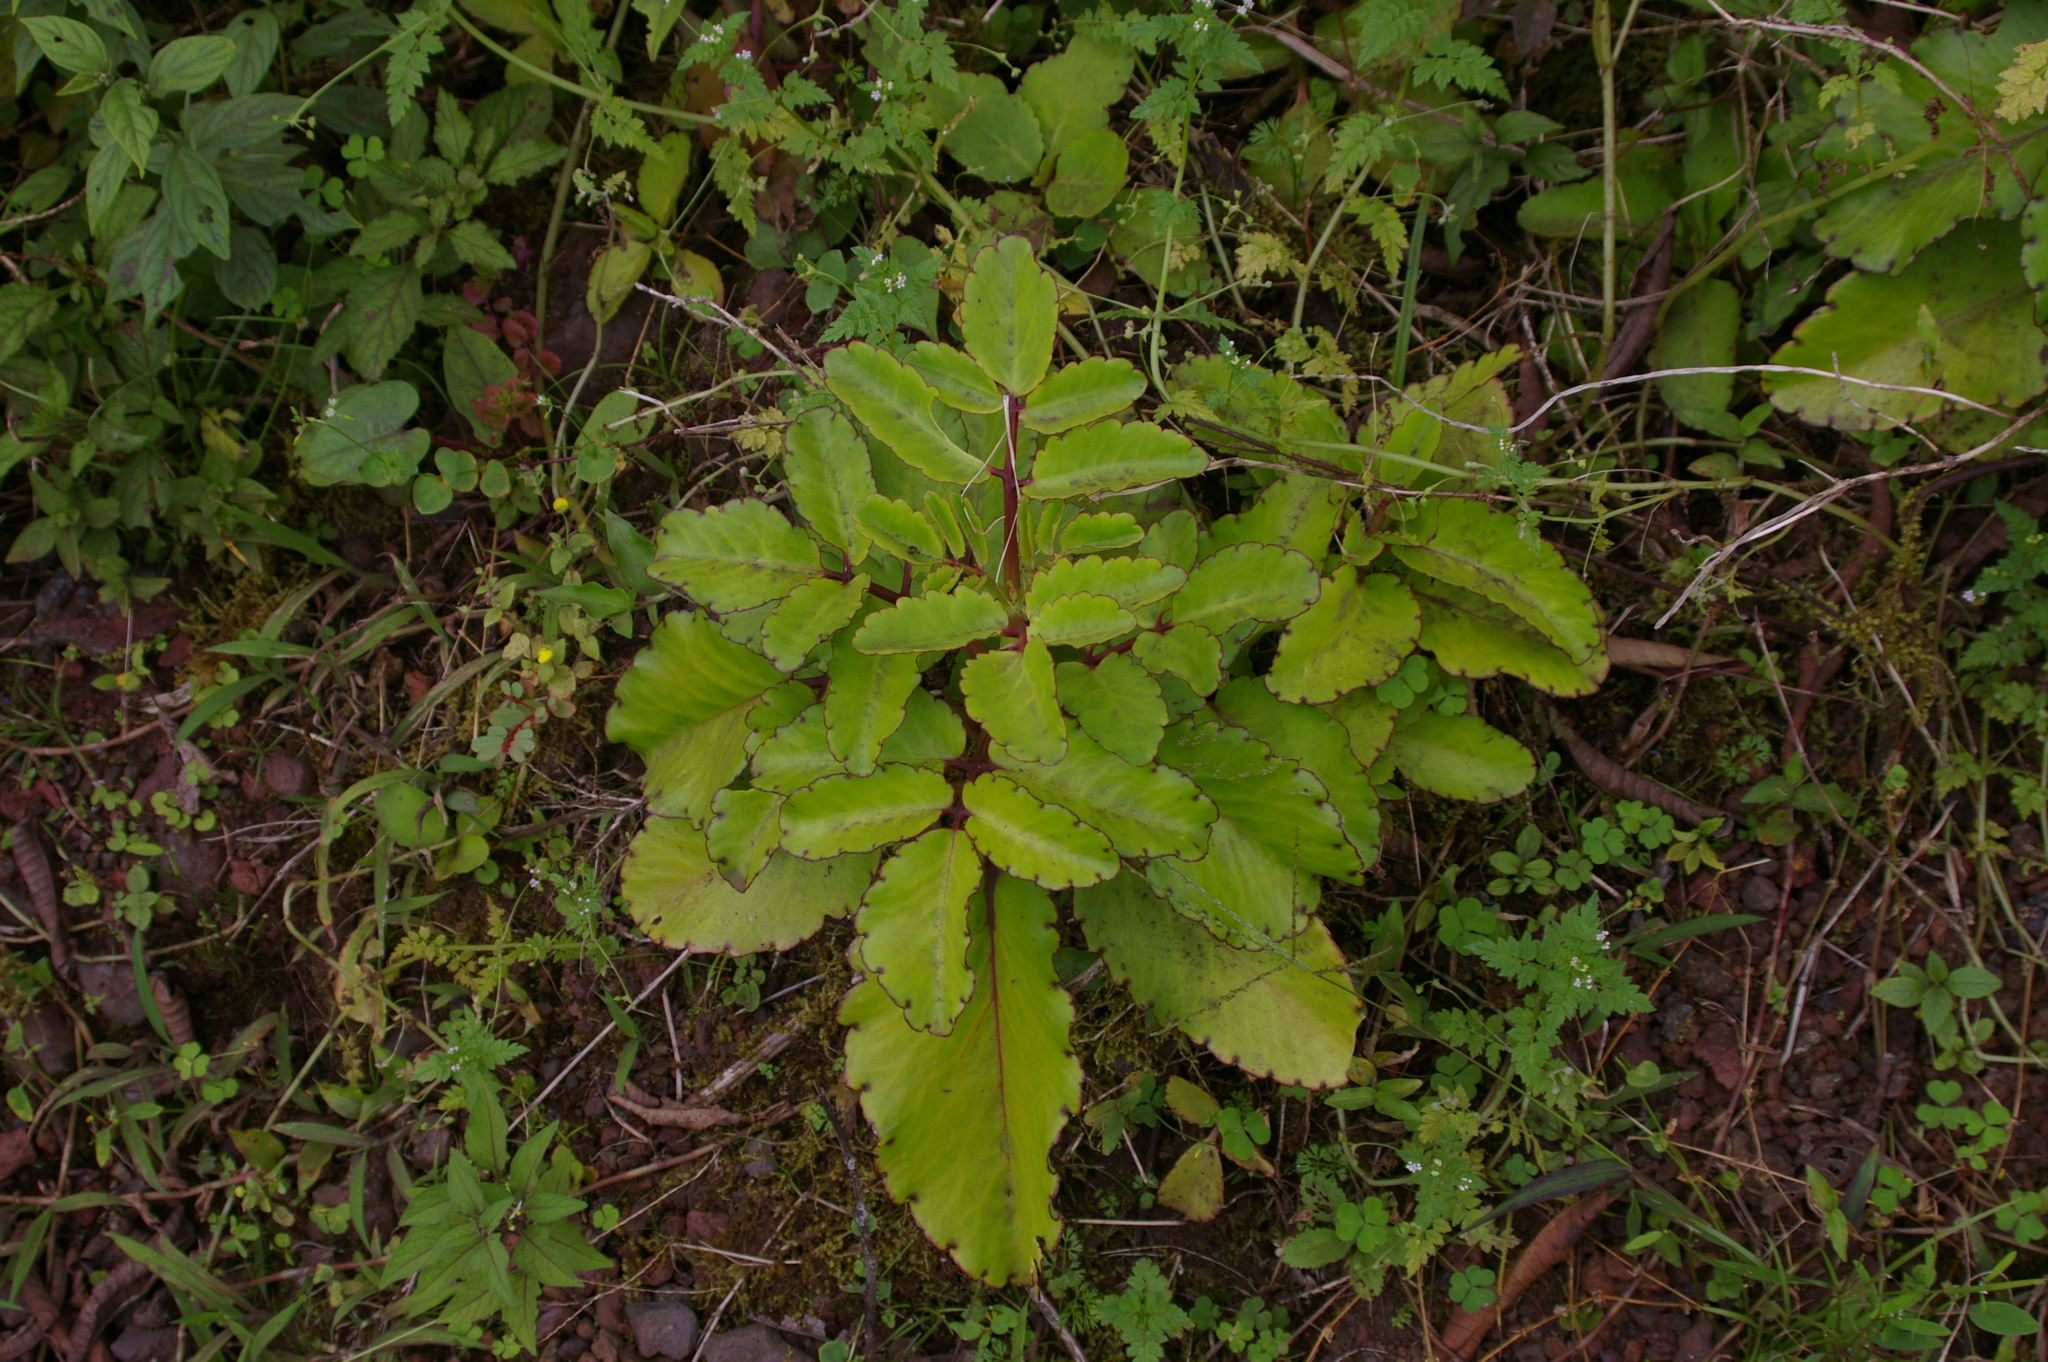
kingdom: Plantae
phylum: Tracheophyta
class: Magnoliopsida
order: Saxifragales
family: Crassulaceae
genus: Kalanchoe
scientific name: Kalanchoe pinnata
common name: Cathedral bells
